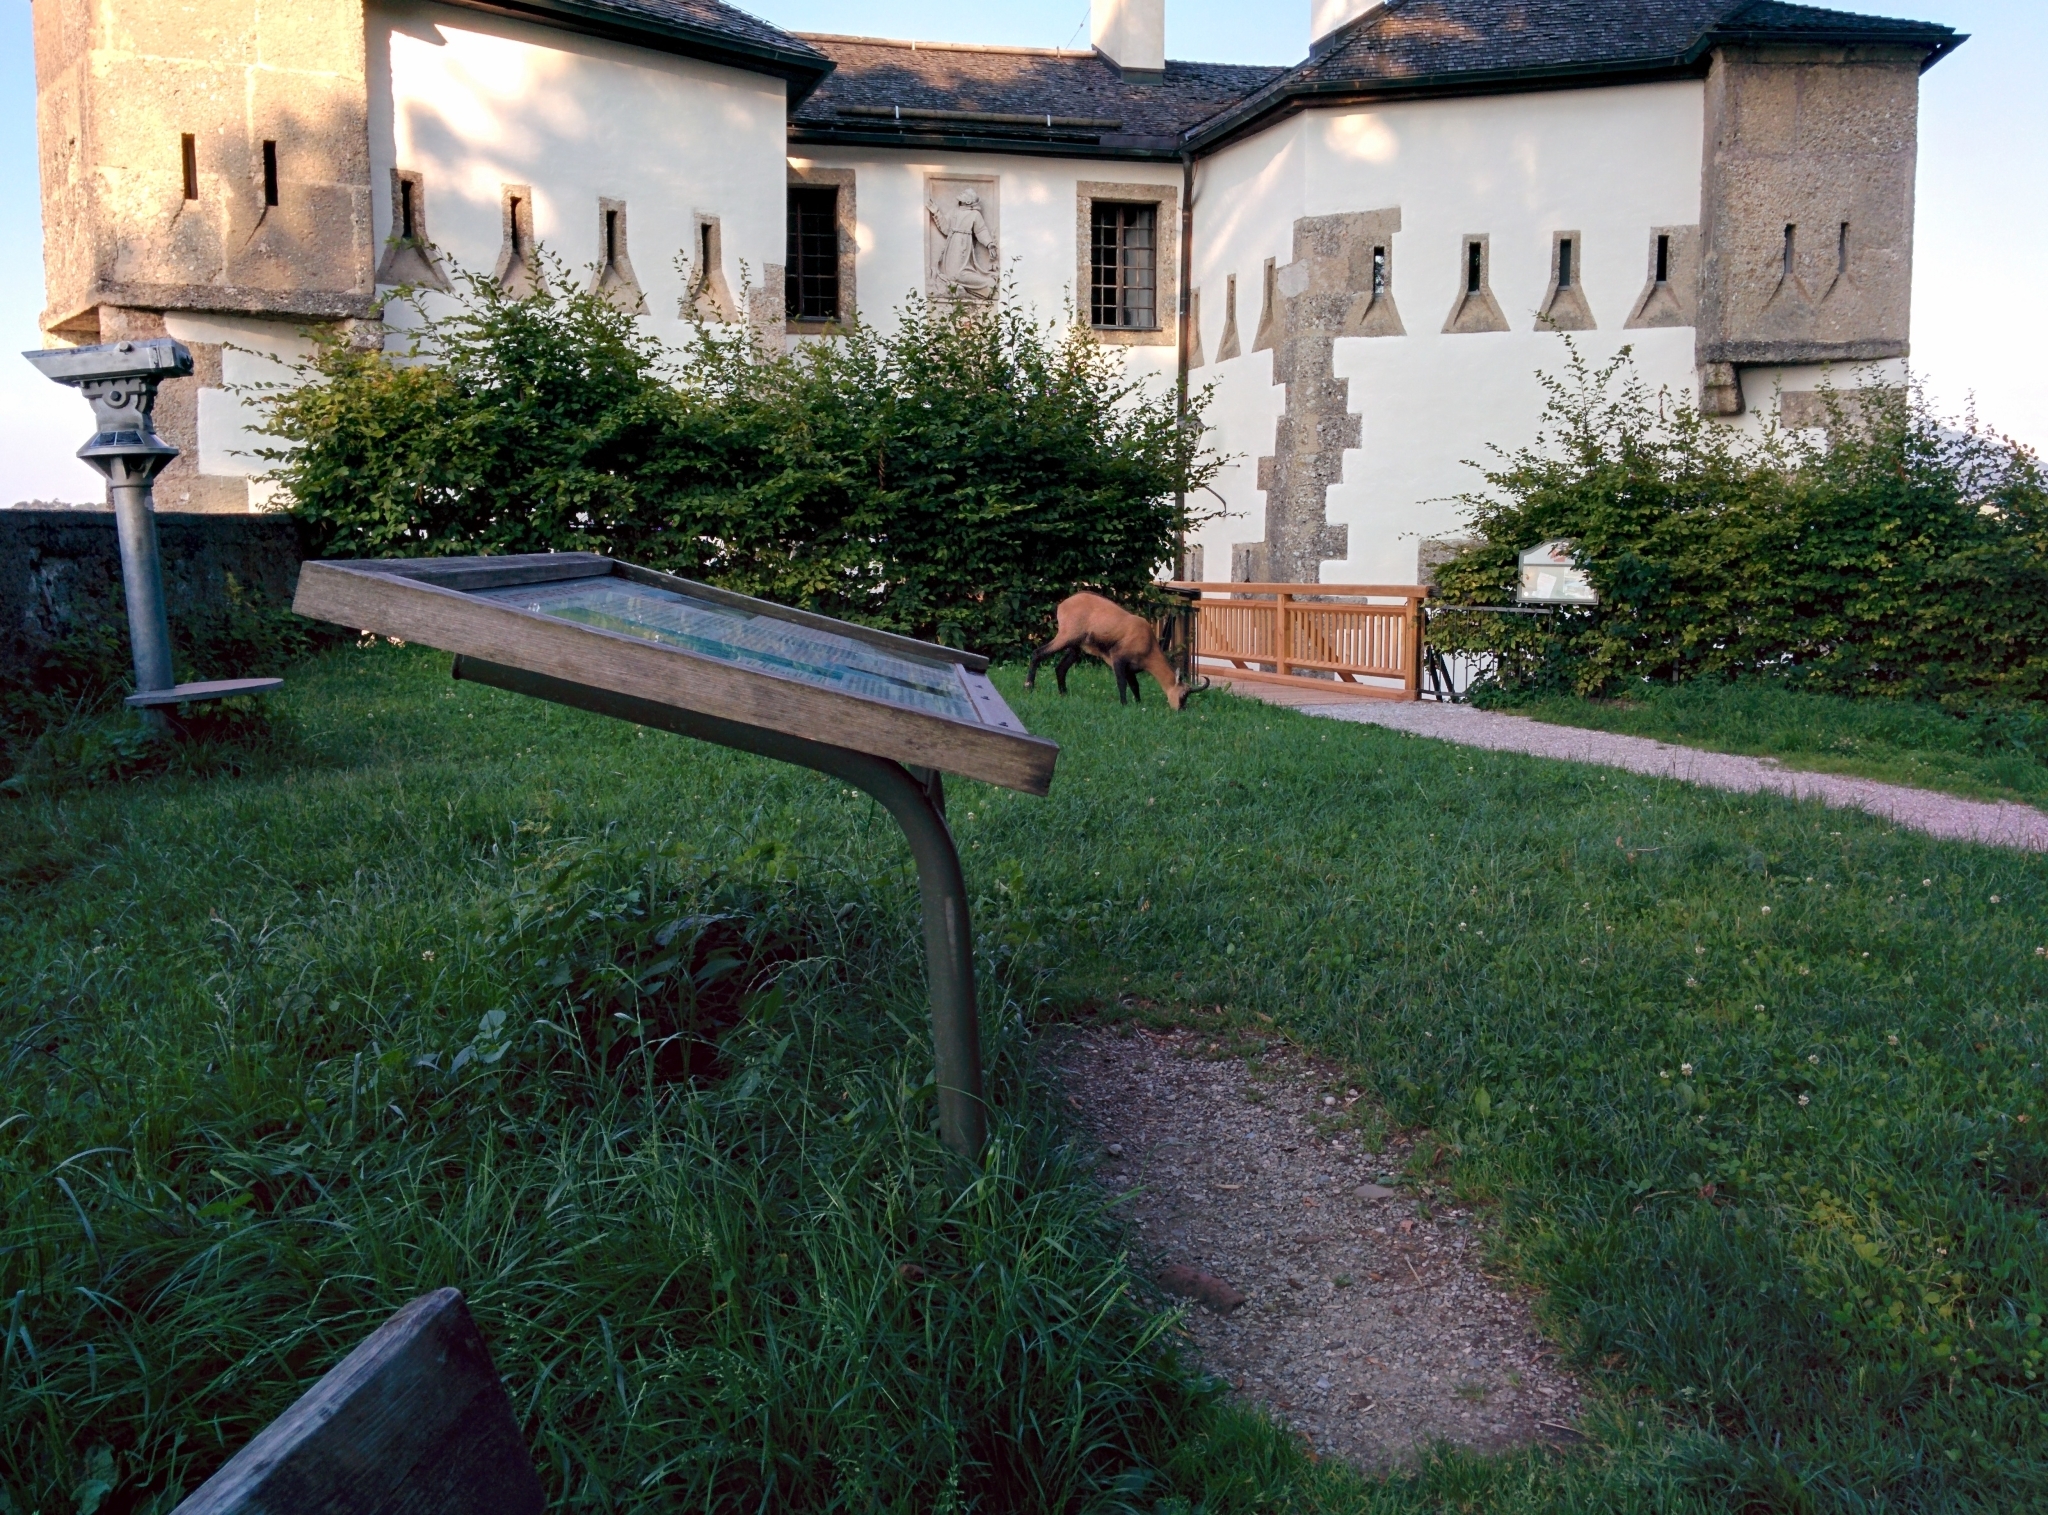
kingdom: Animalia
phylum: Chordata
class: Mammalia
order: Artiodactyla
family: Bovidae
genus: Rupicapra
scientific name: Rupicapra rupicapra
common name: Chamois
